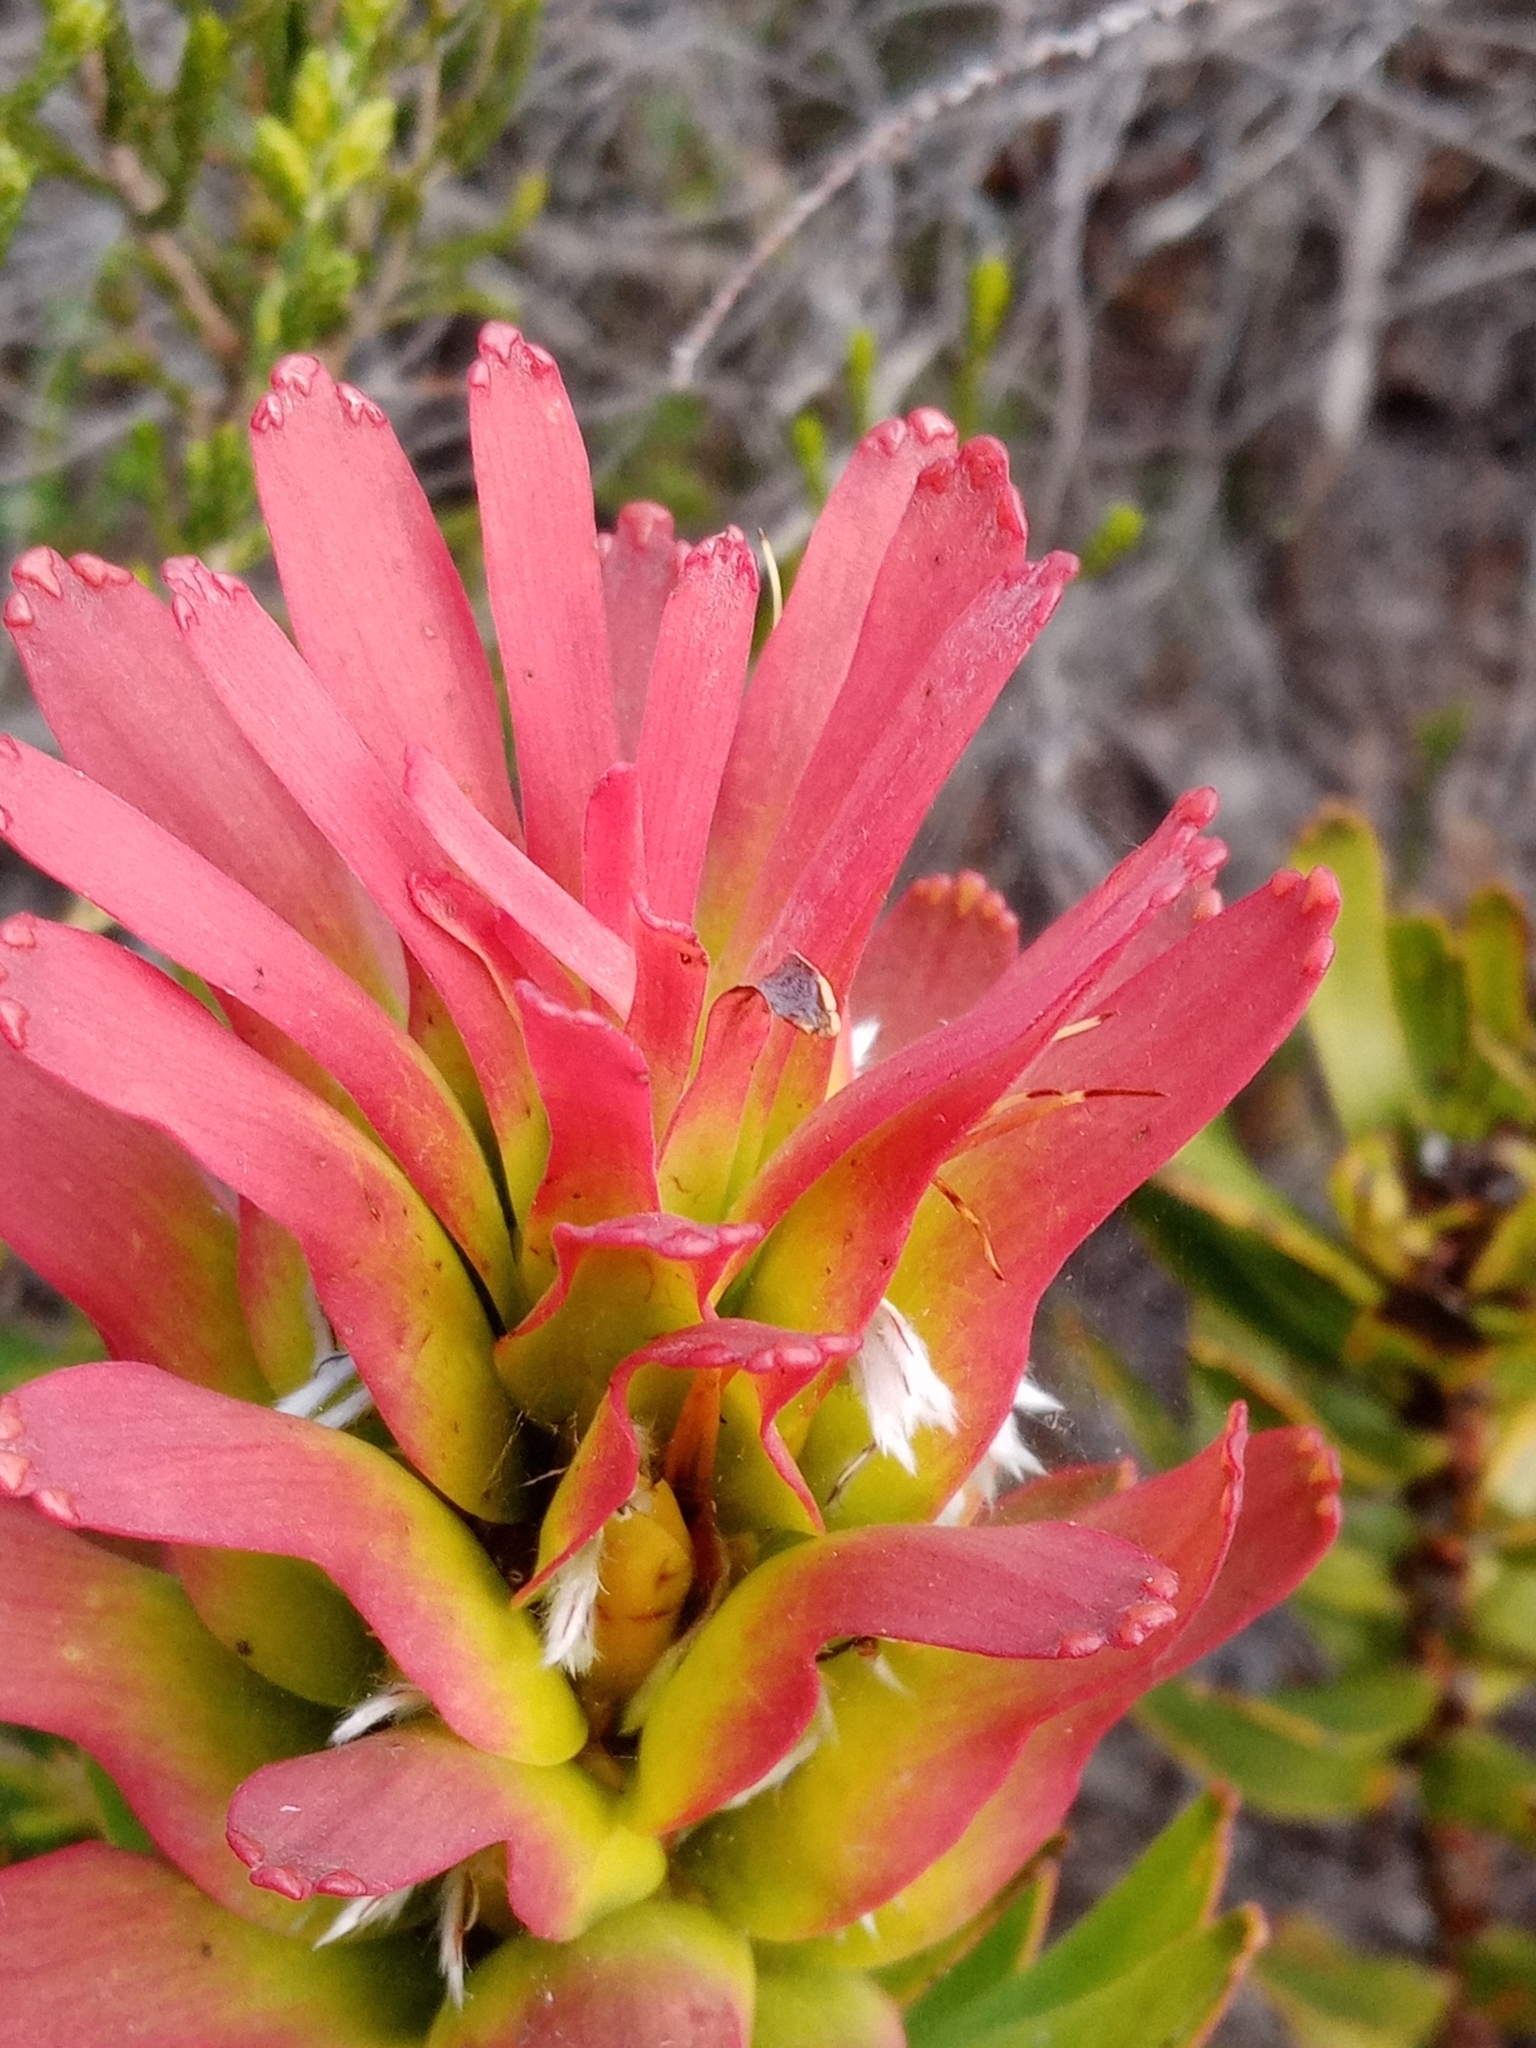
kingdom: Plantae
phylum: Tracheophyta
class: Magnoliopsida
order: Proteales
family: Proteaceae
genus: Mimetes
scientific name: Mimetes cucullatus
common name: Common pagoda
